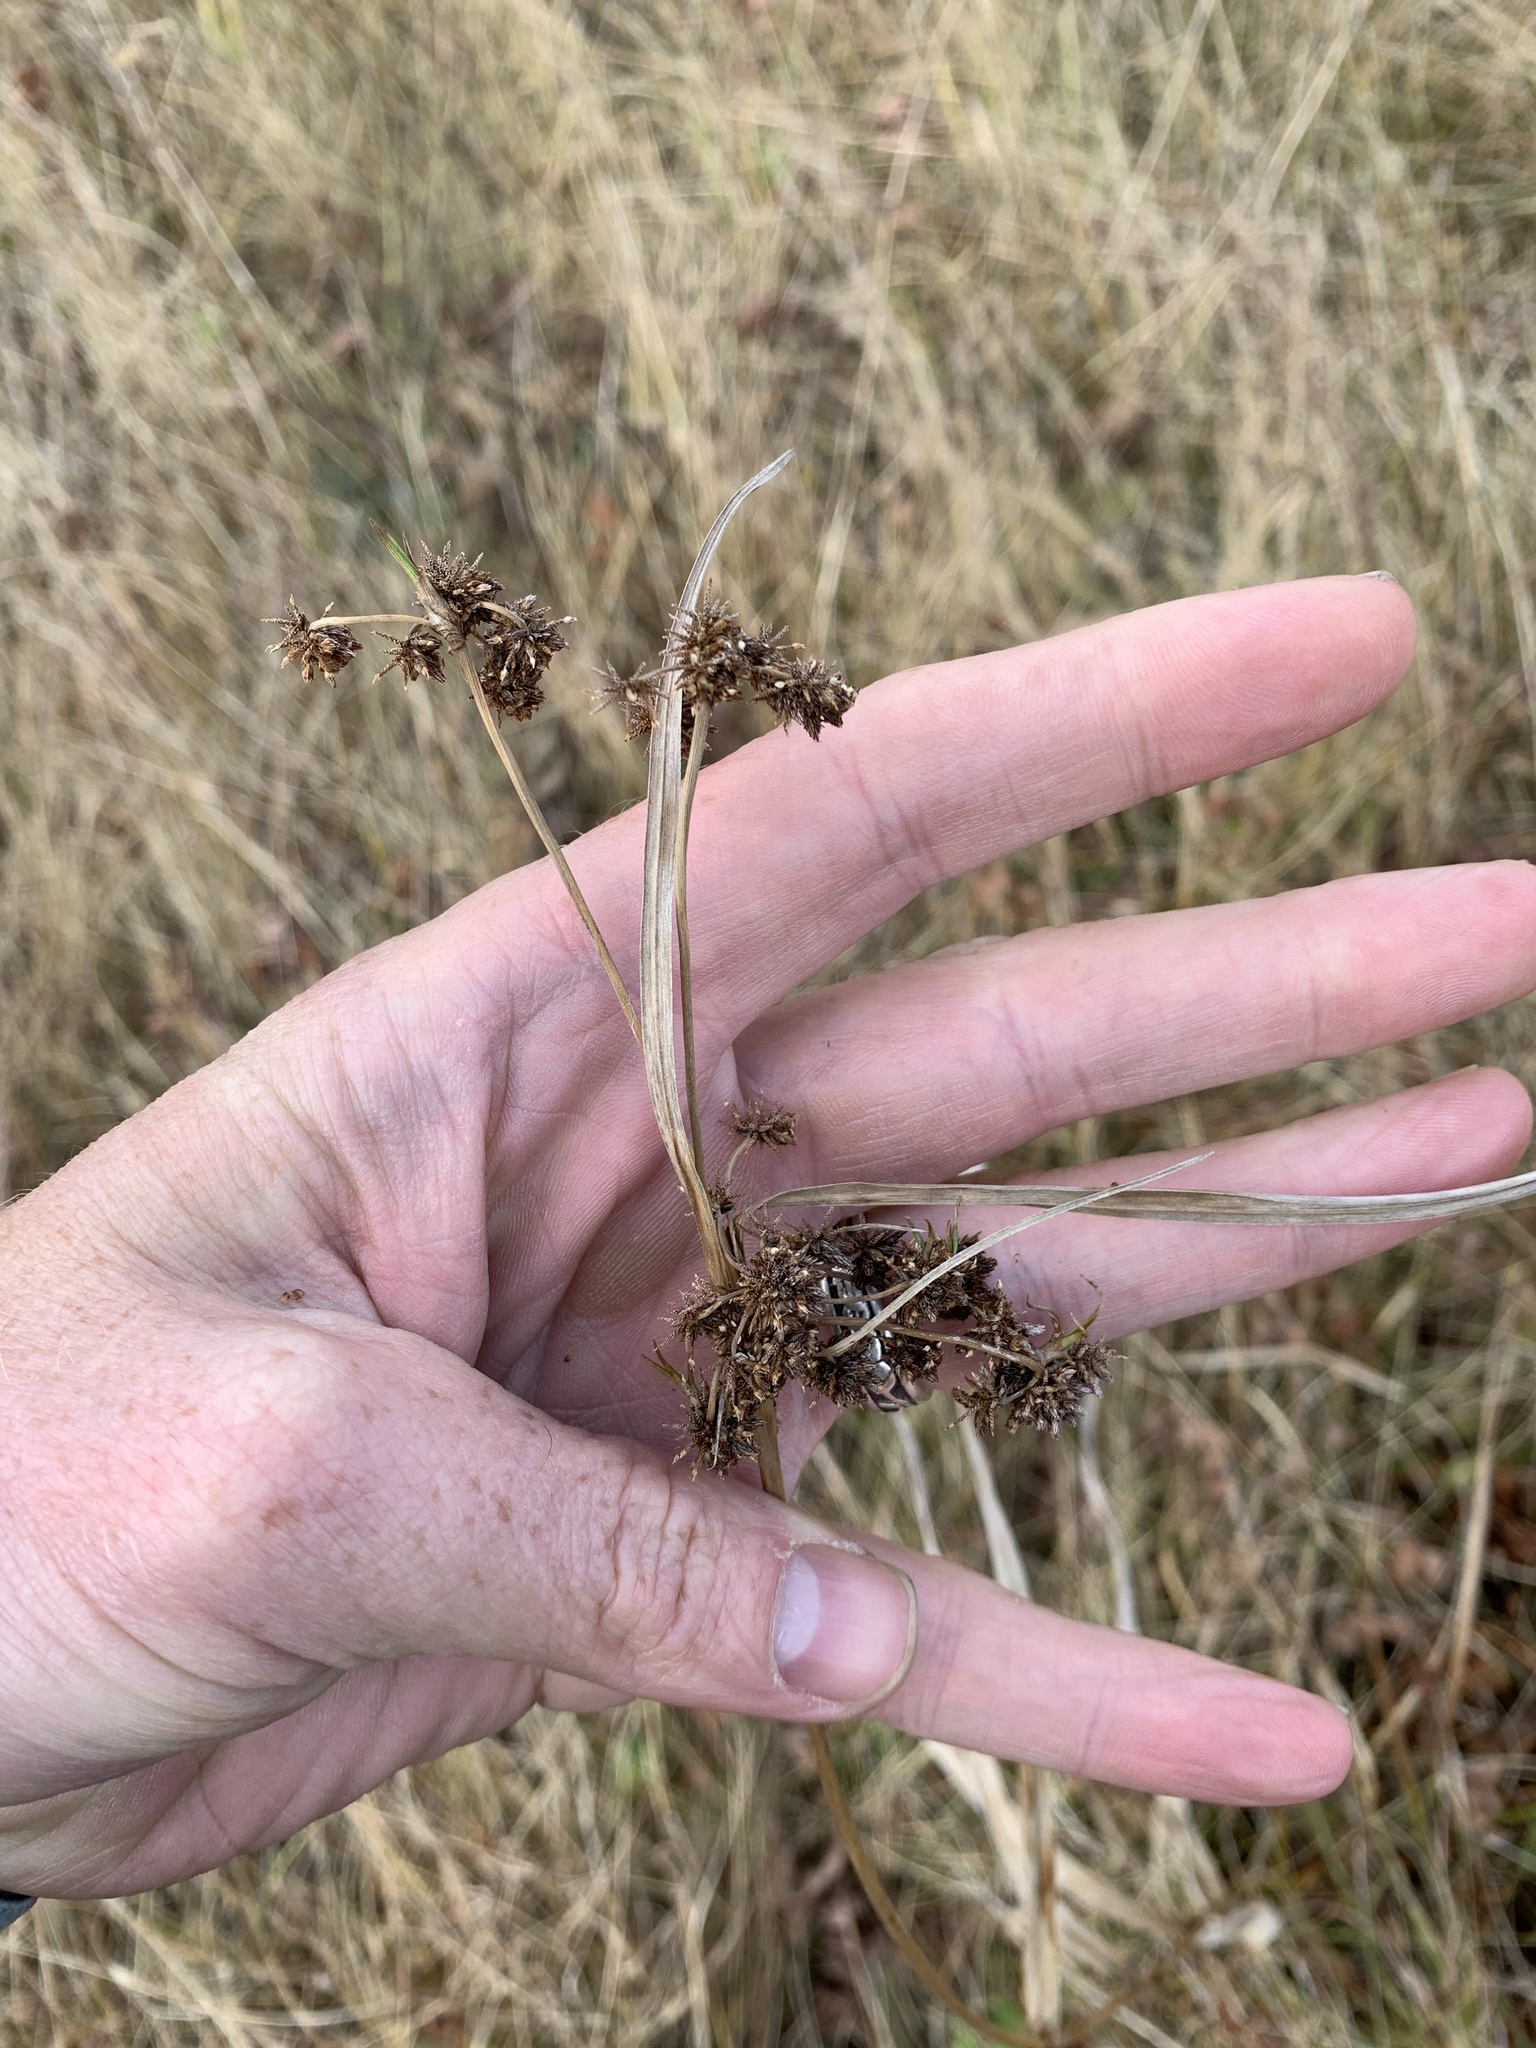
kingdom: Plantae
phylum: Tracheophyta
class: Liliopsida
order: Poales
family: Cyperaceae
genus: Scirpus
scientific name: Scirpus
